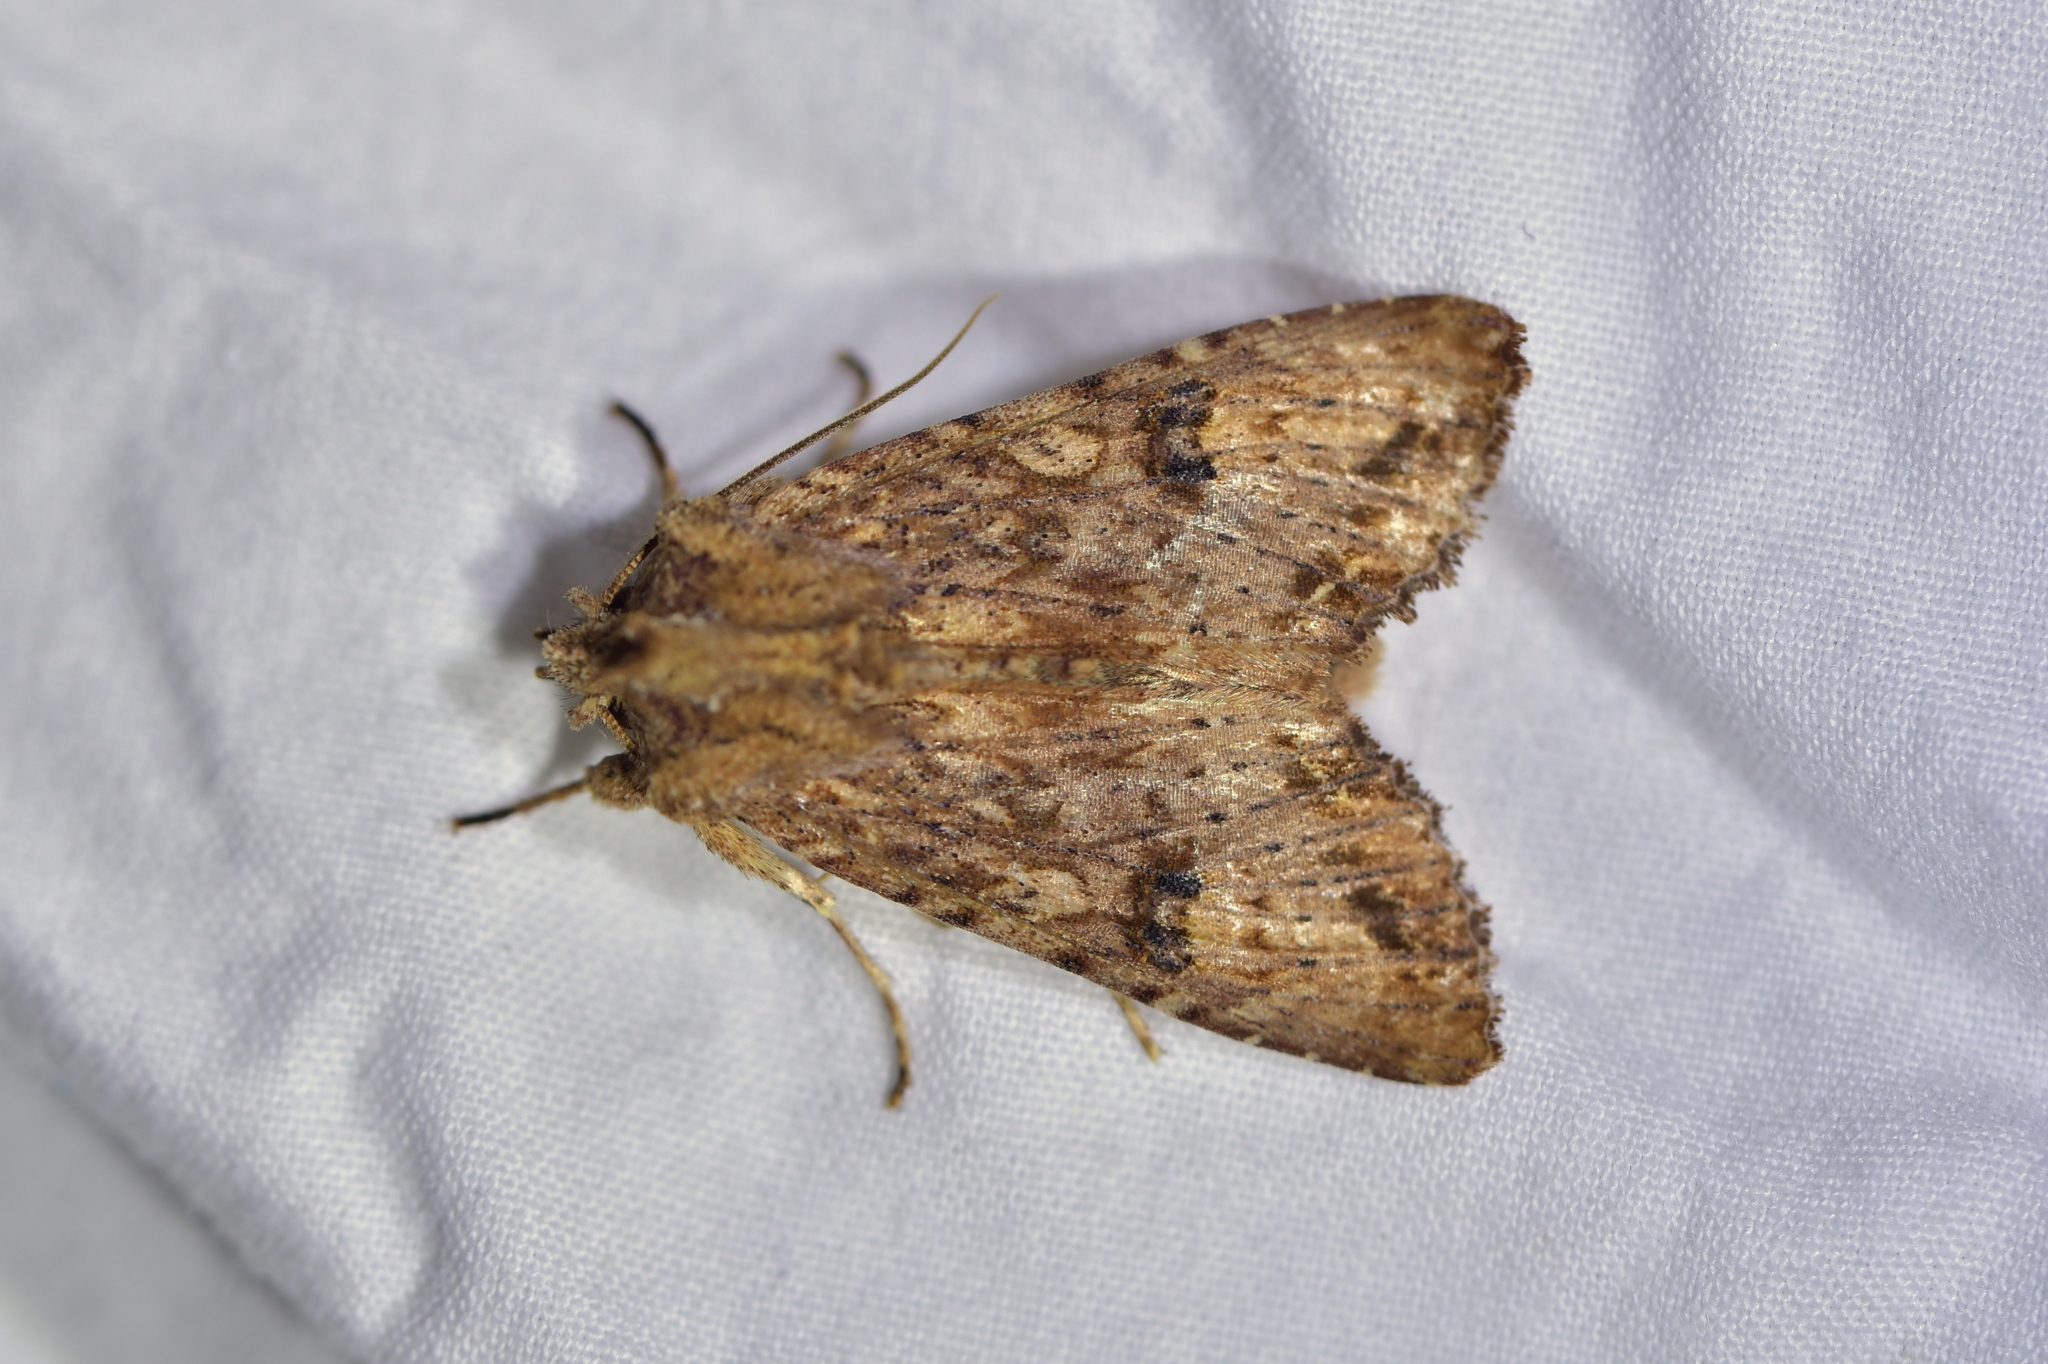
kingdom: Animalia
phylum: Arthropoda
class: Insecta
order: Lepidoptera
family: Noctuidae
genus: Meterana
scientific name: Meterana pascoei
